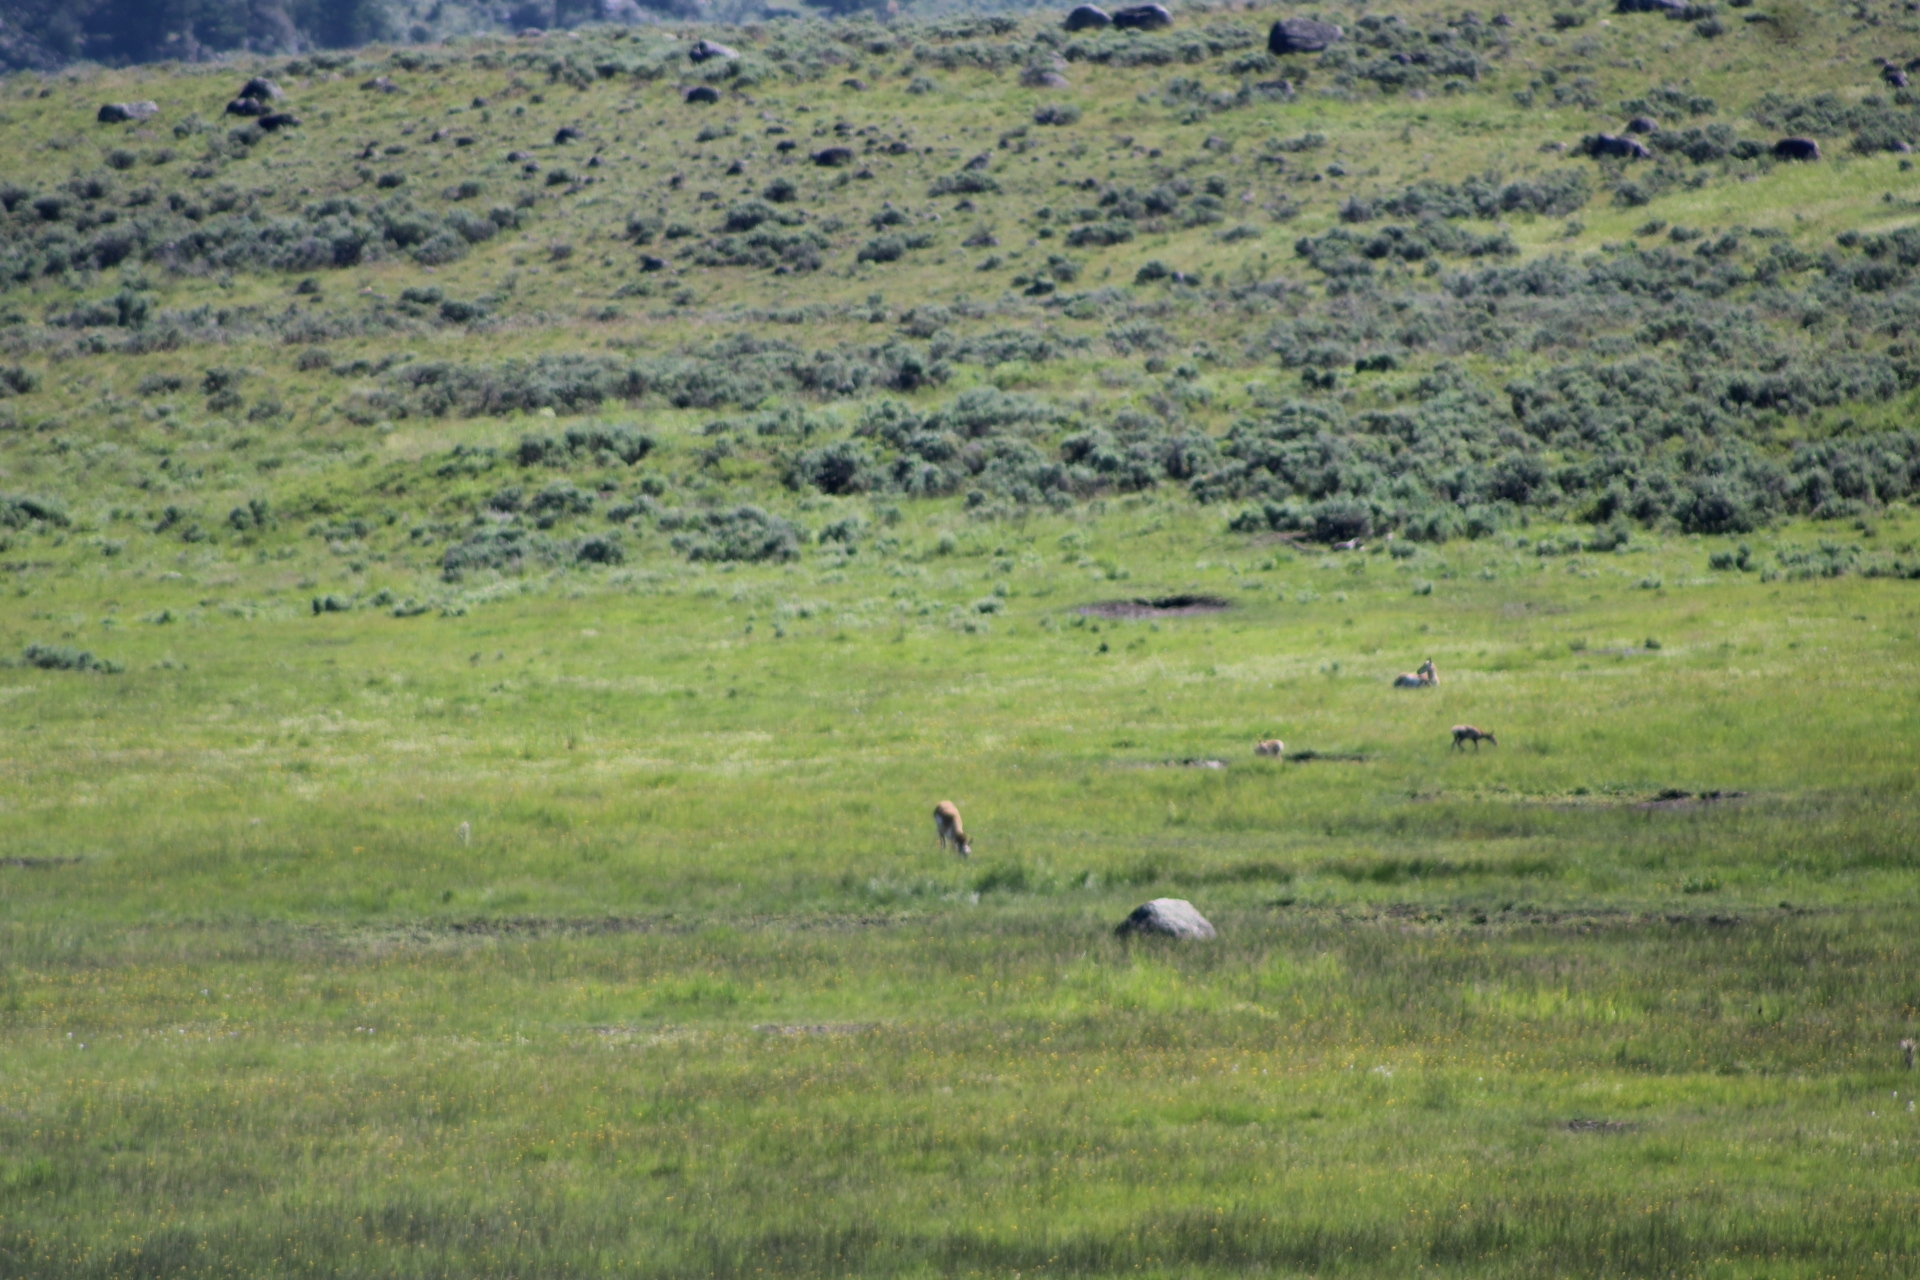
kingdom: Animalia
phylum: Chordata
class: Mammalia
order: Artiodactyla
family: Antilocapridae
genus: Antilocapra
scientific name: Antilocapra americana
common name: Pronghorn
